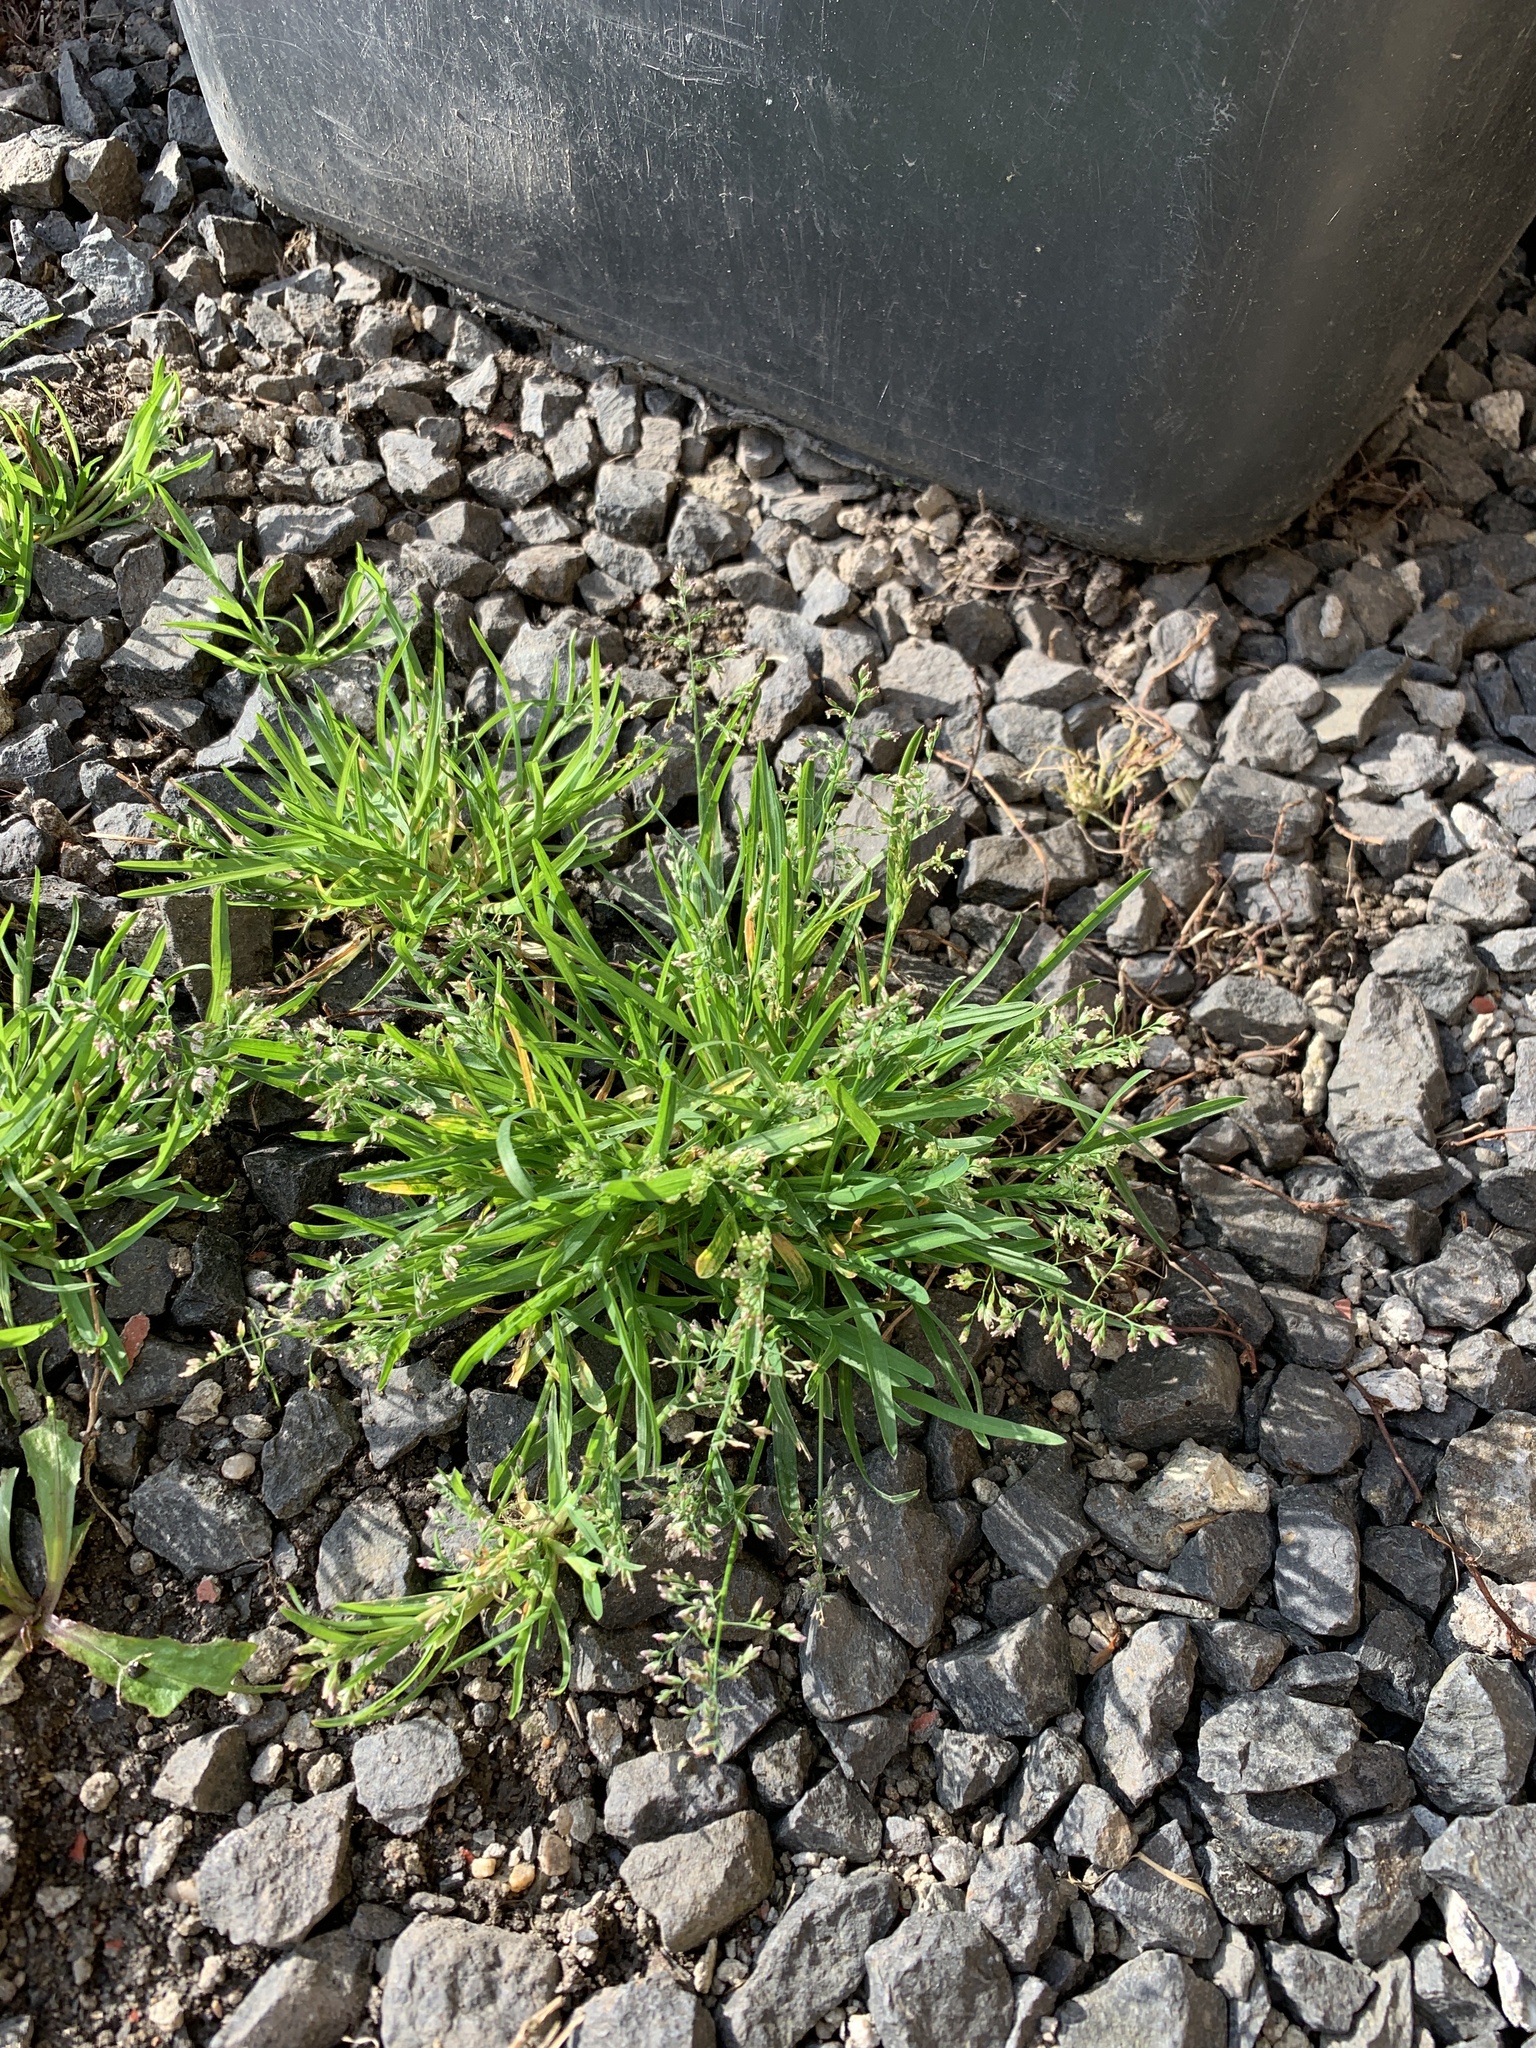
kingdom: Plantae
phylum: Tracheophyta
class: Liliopsida
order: Poales
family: Poaceae
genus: Poa
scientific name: Poa annua
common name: Annual bluegrass
